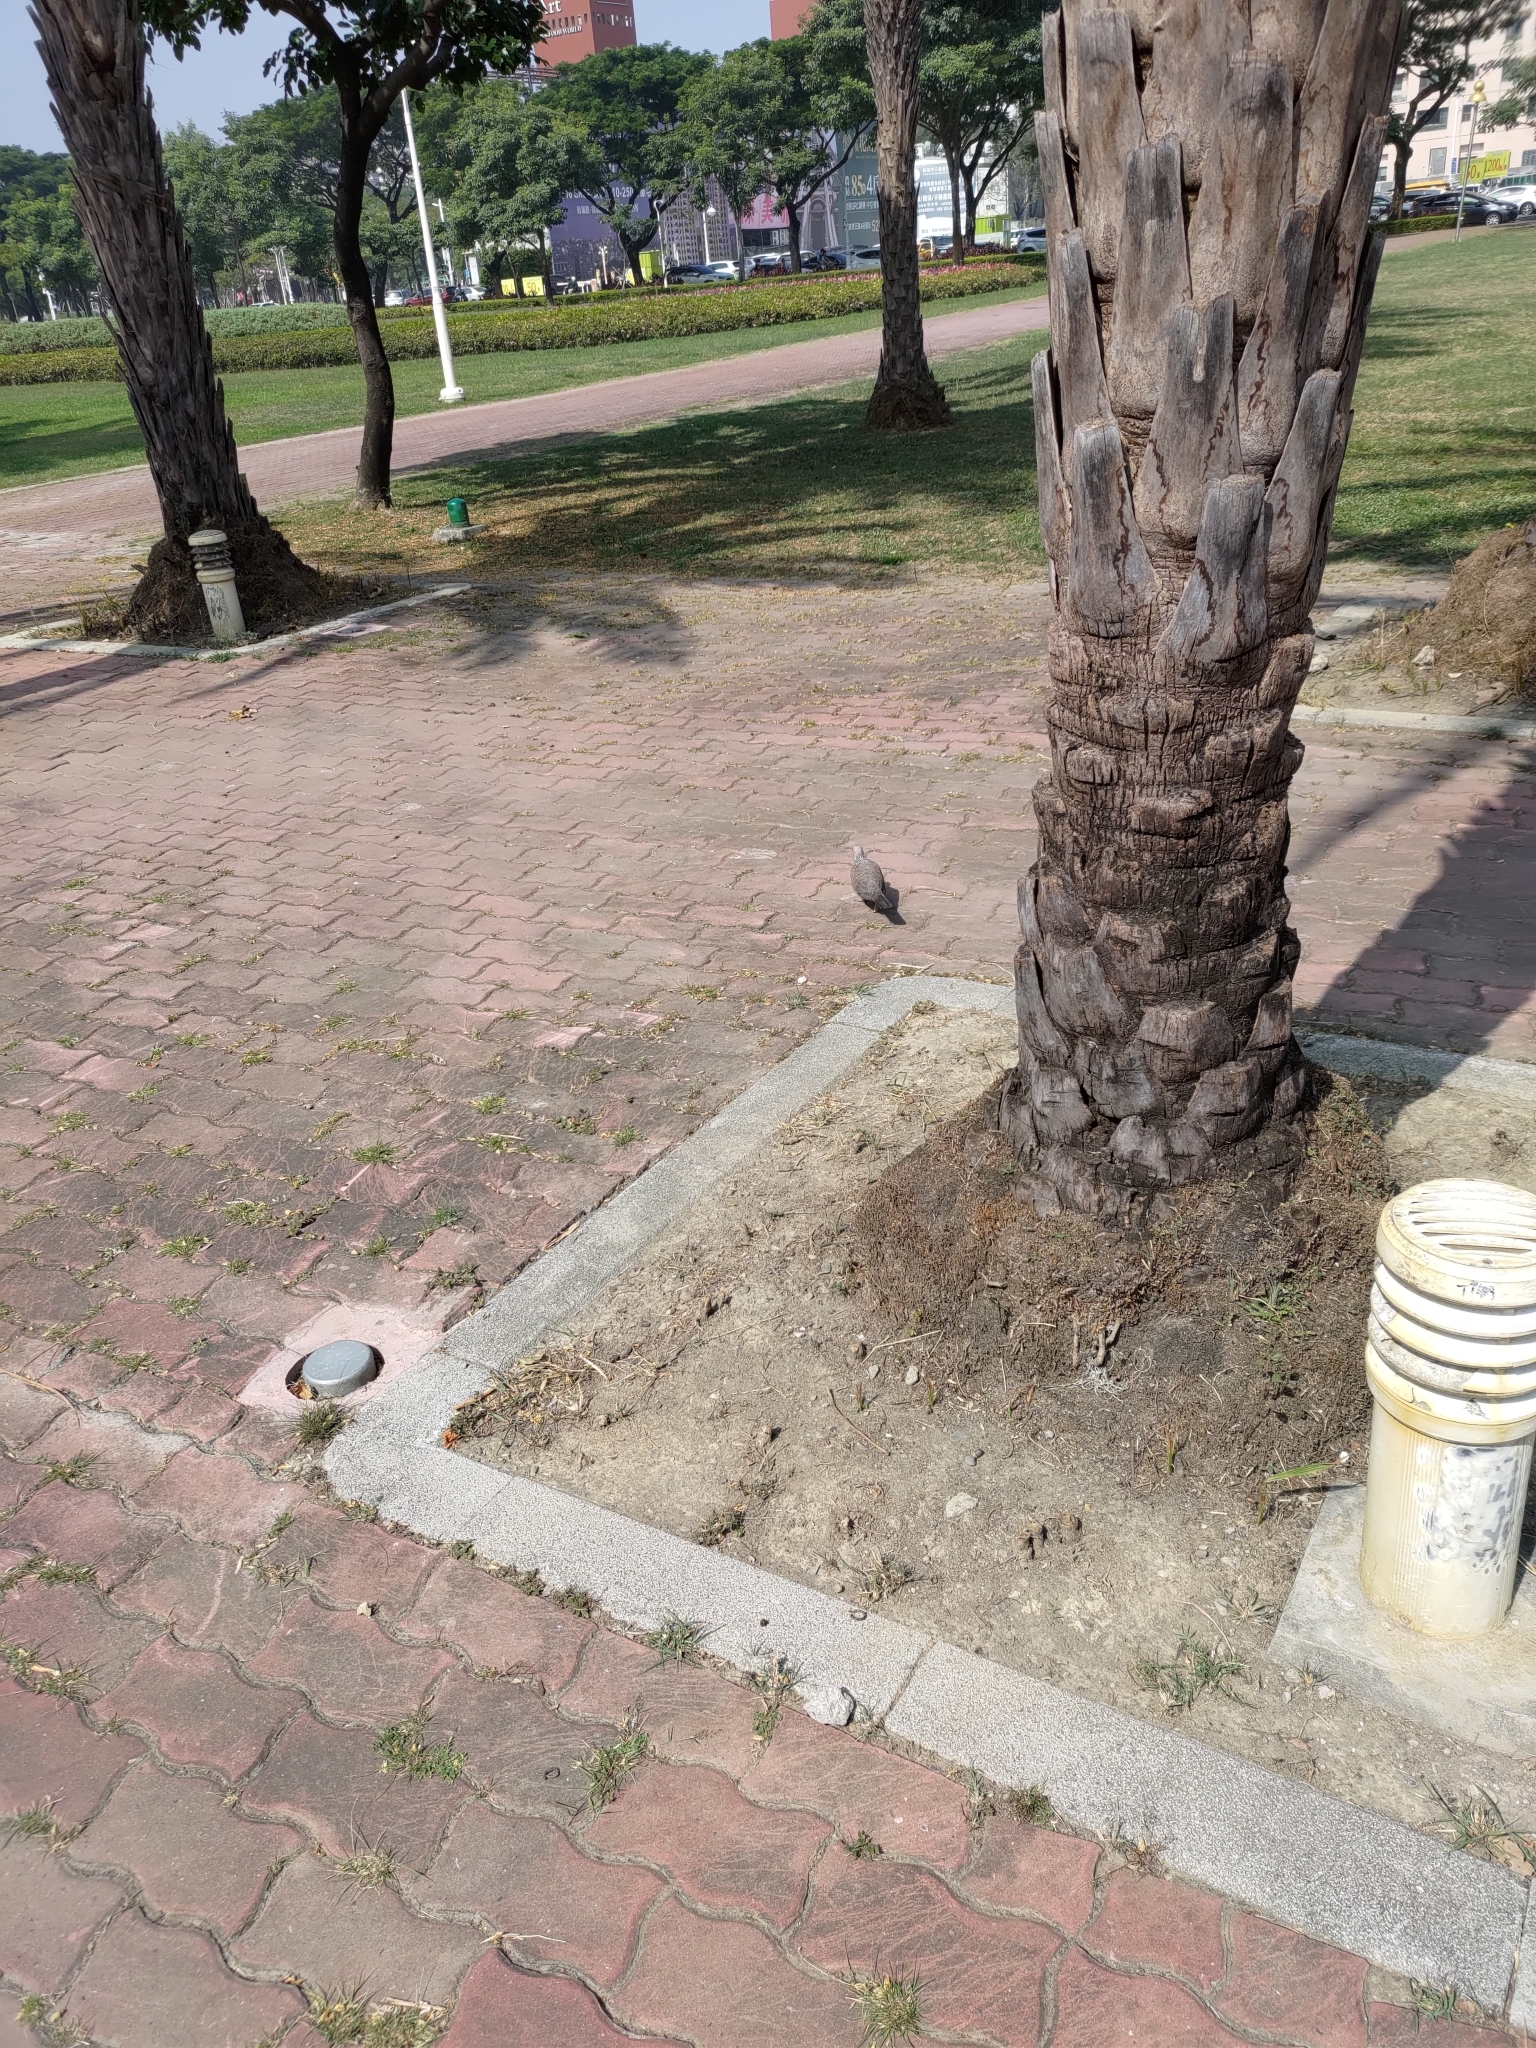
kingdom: Animalia
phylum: Chordata
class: Aves
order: Columbiformes
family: Columbidae
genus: Spilopelia
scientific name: Spilopelia chinensis
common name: Spotted dove
